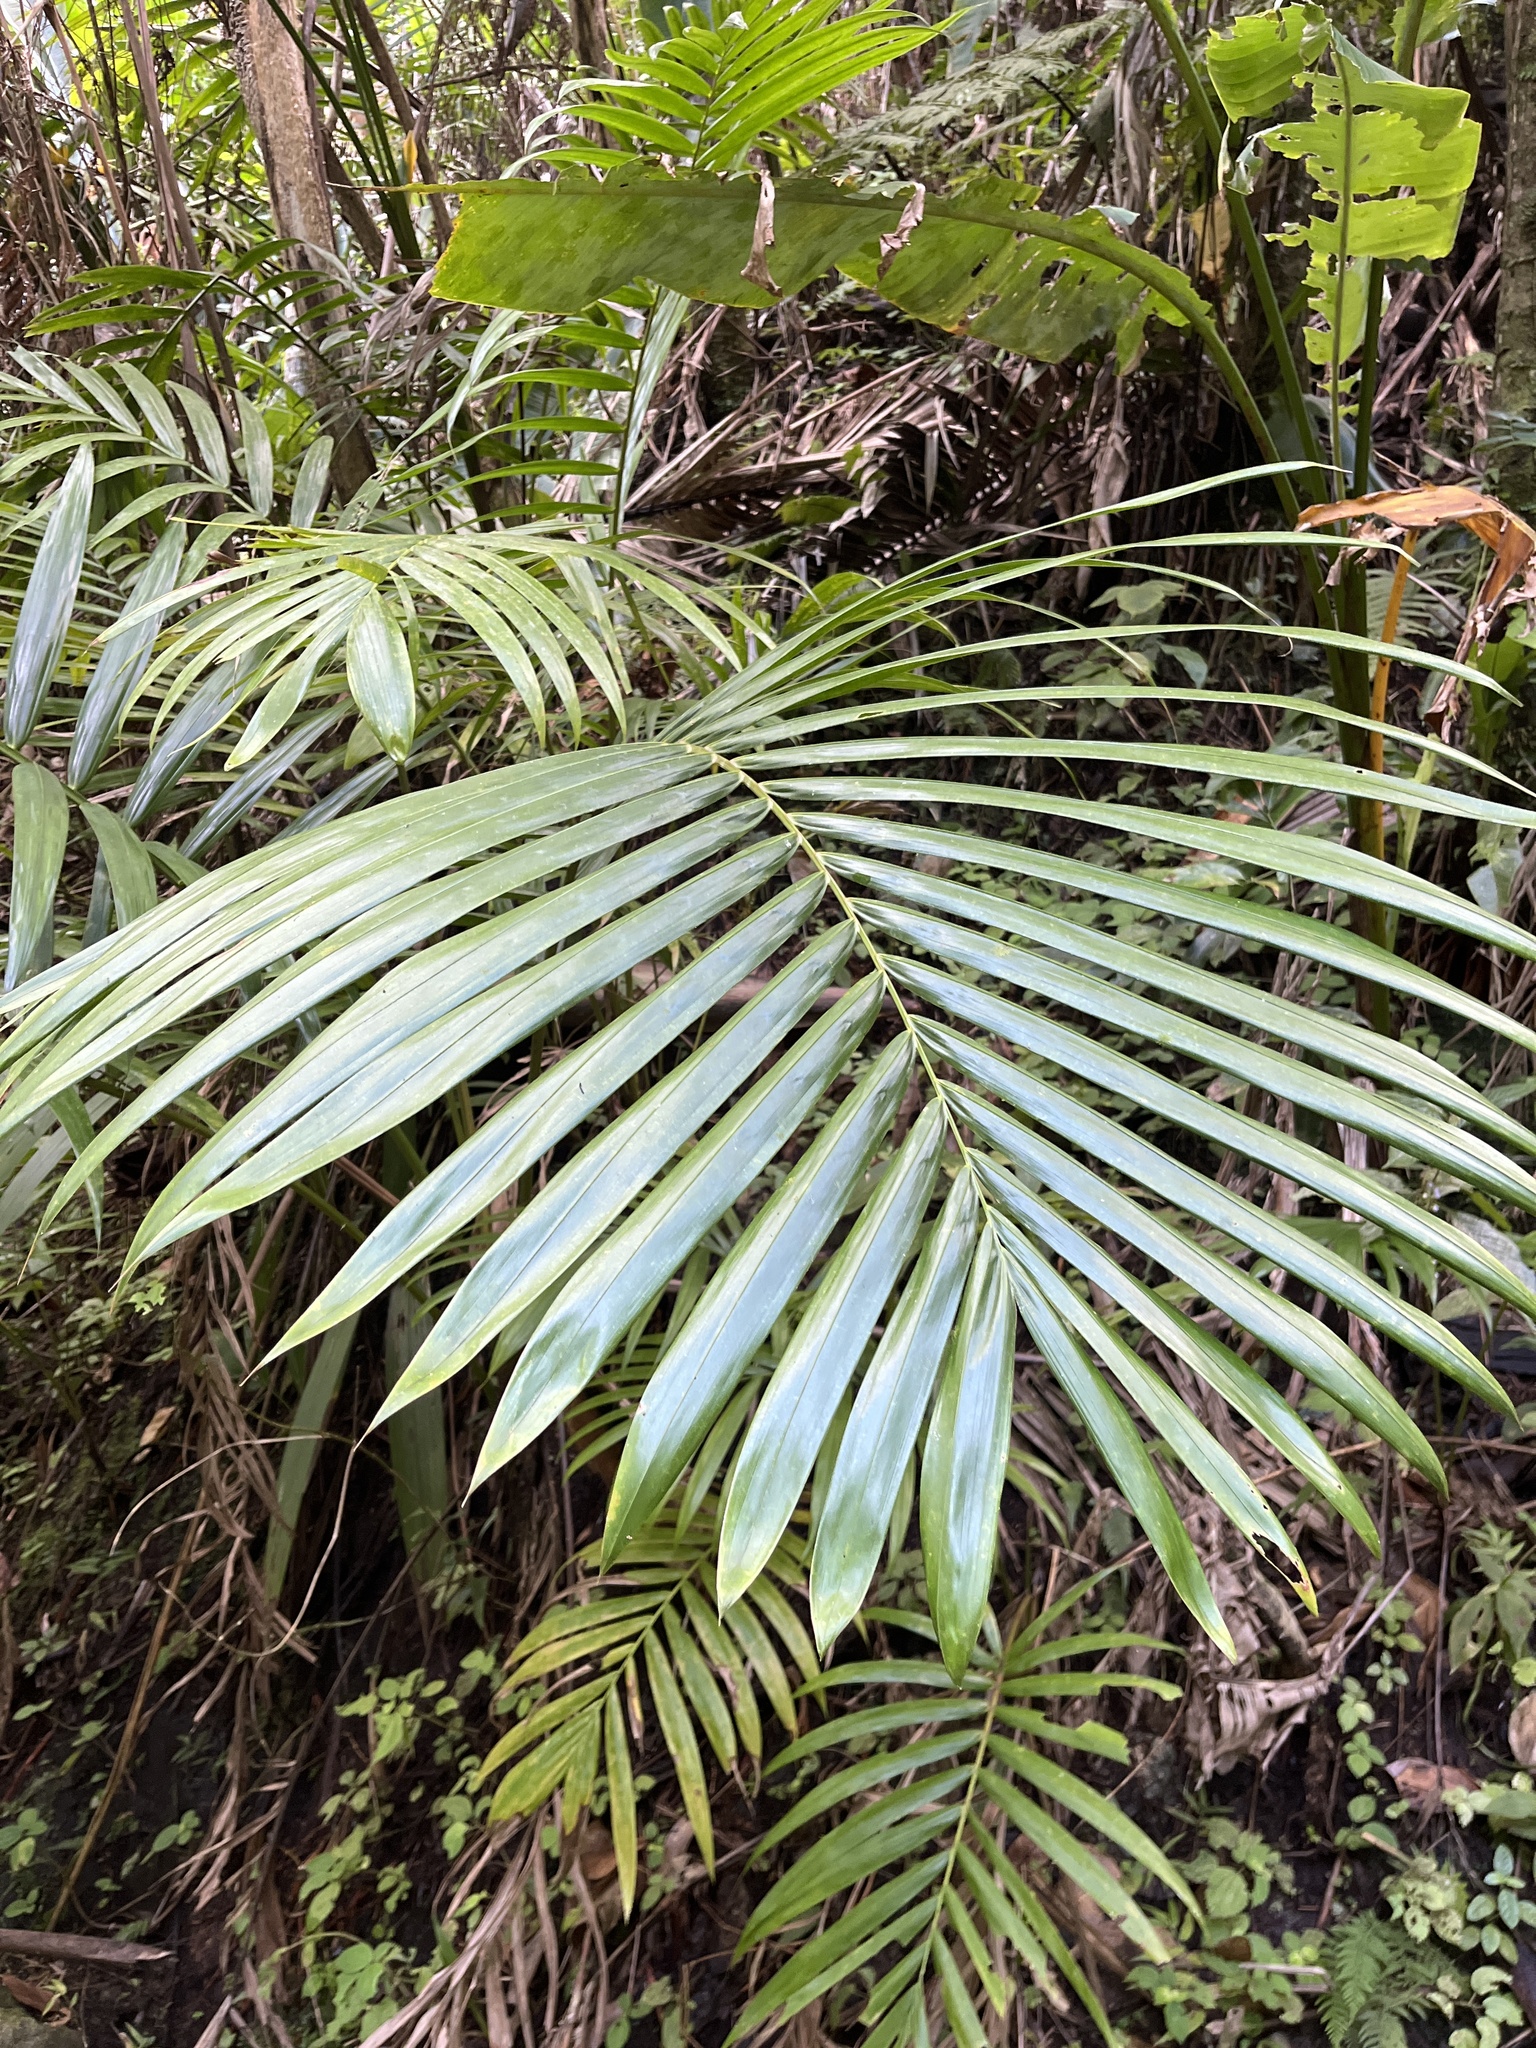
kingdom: Plantae
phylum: Tracheophyta
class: Liliopsida
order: Arecales
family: Arecaceae
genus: Prestoea
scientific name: Prestoea acuminata
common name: Sierran palm
